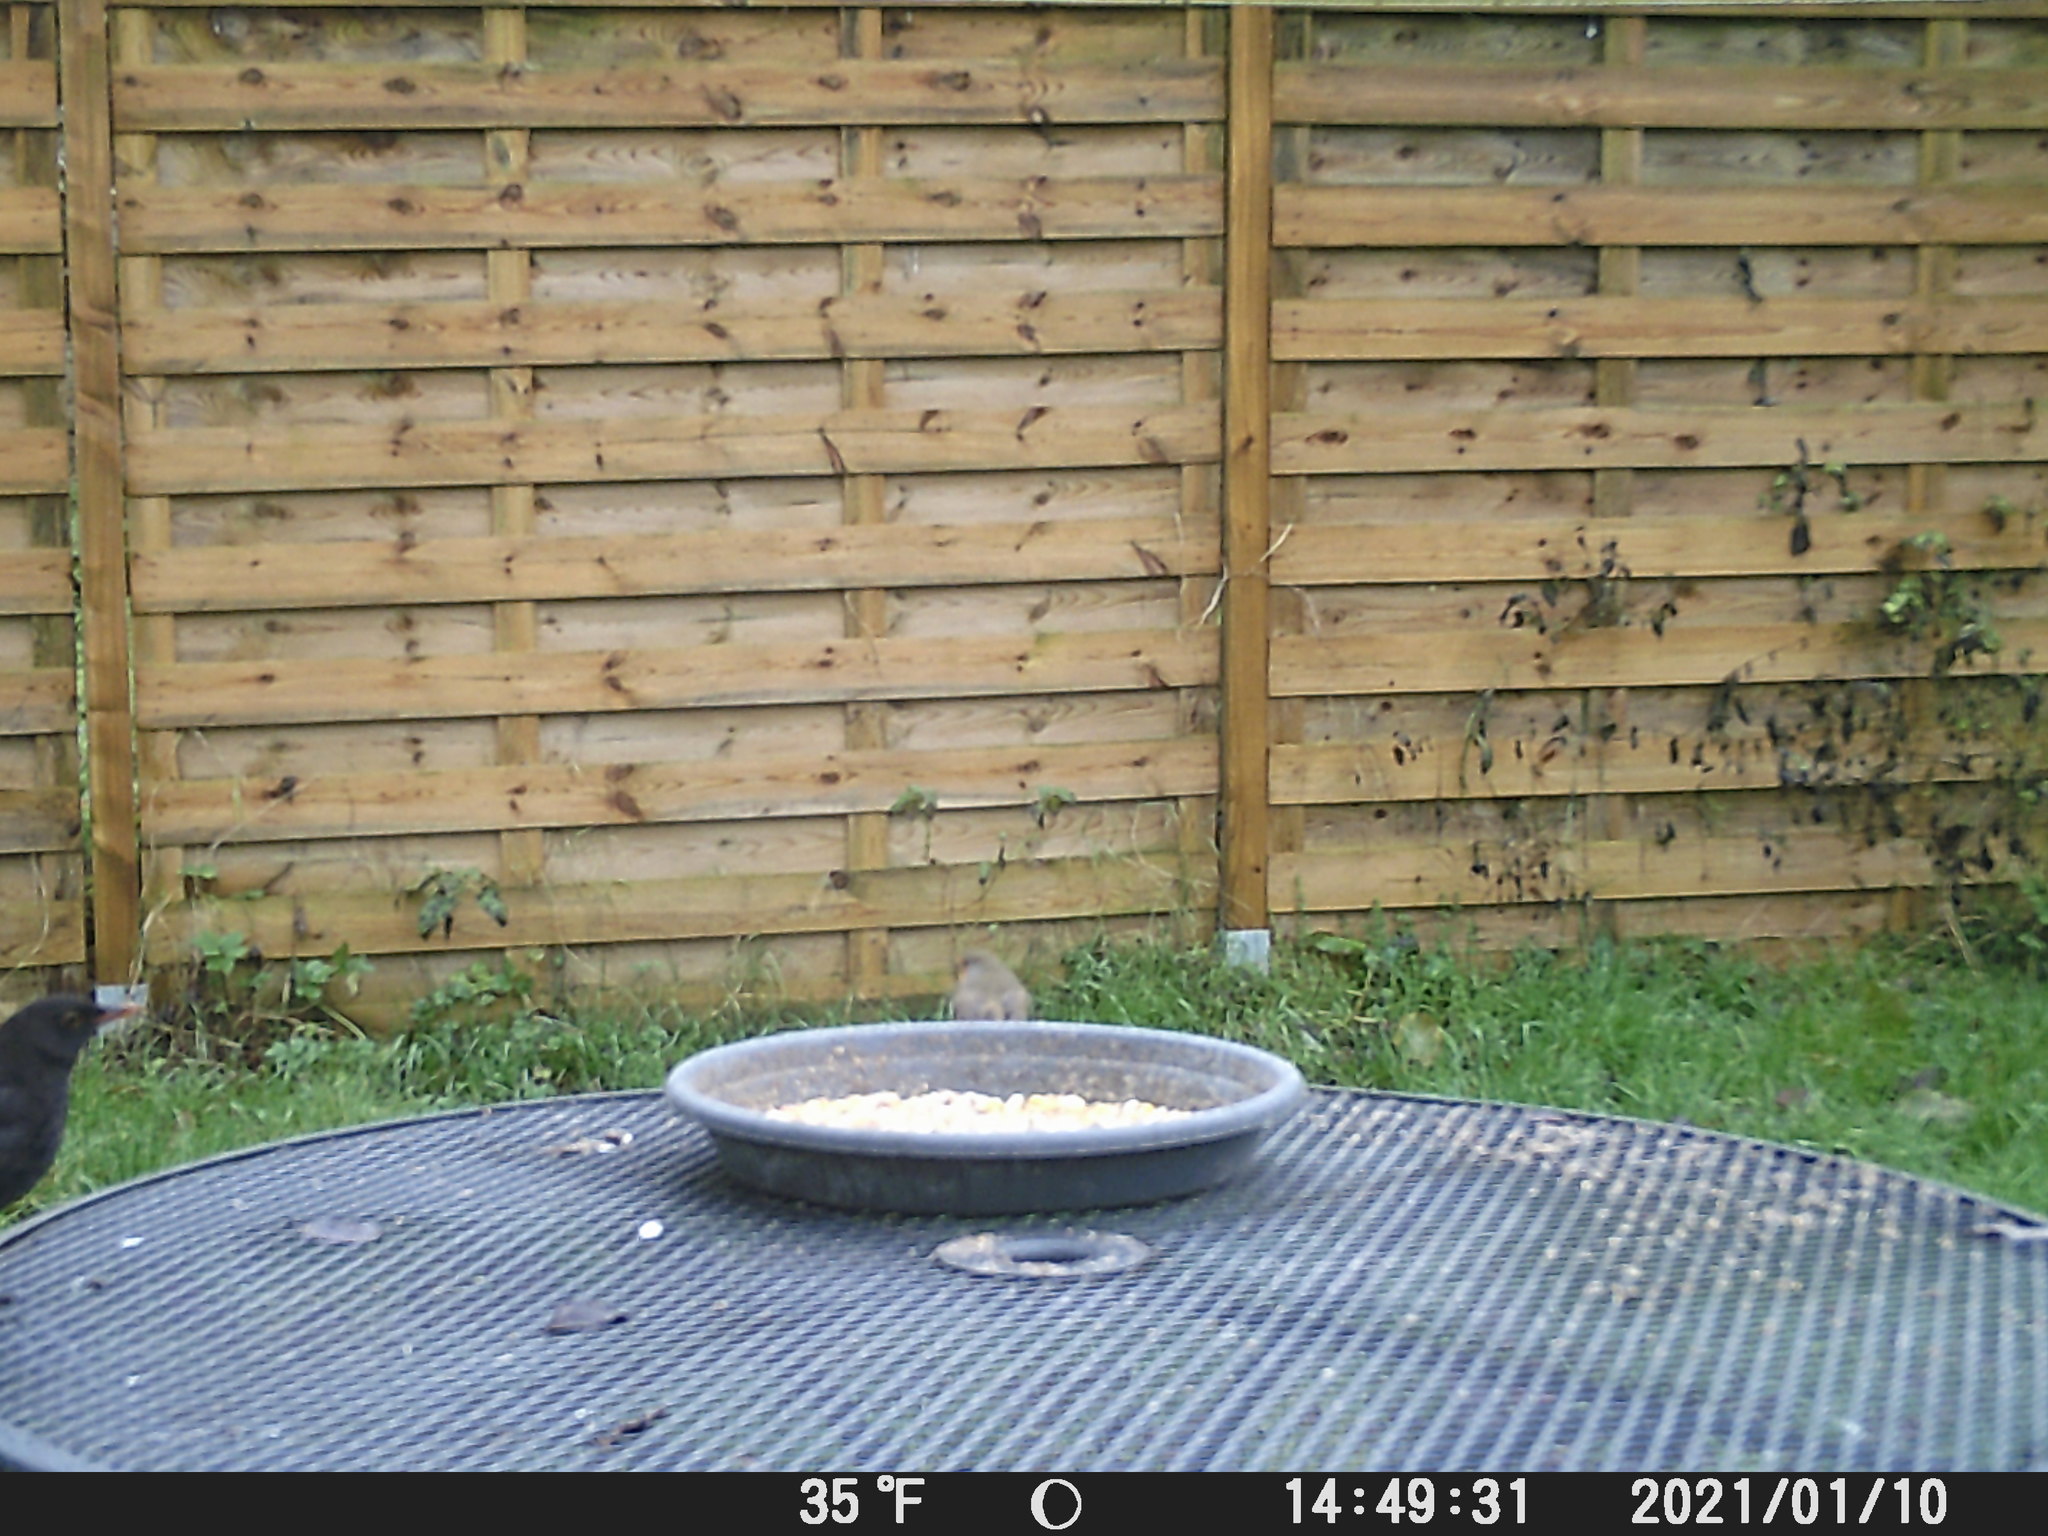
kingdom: Animalia
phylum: Chordata
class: Aves
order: Passeriformes
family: Muscicapidae
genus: Erithacus
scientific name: Erithacus rubecula
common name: European robin
